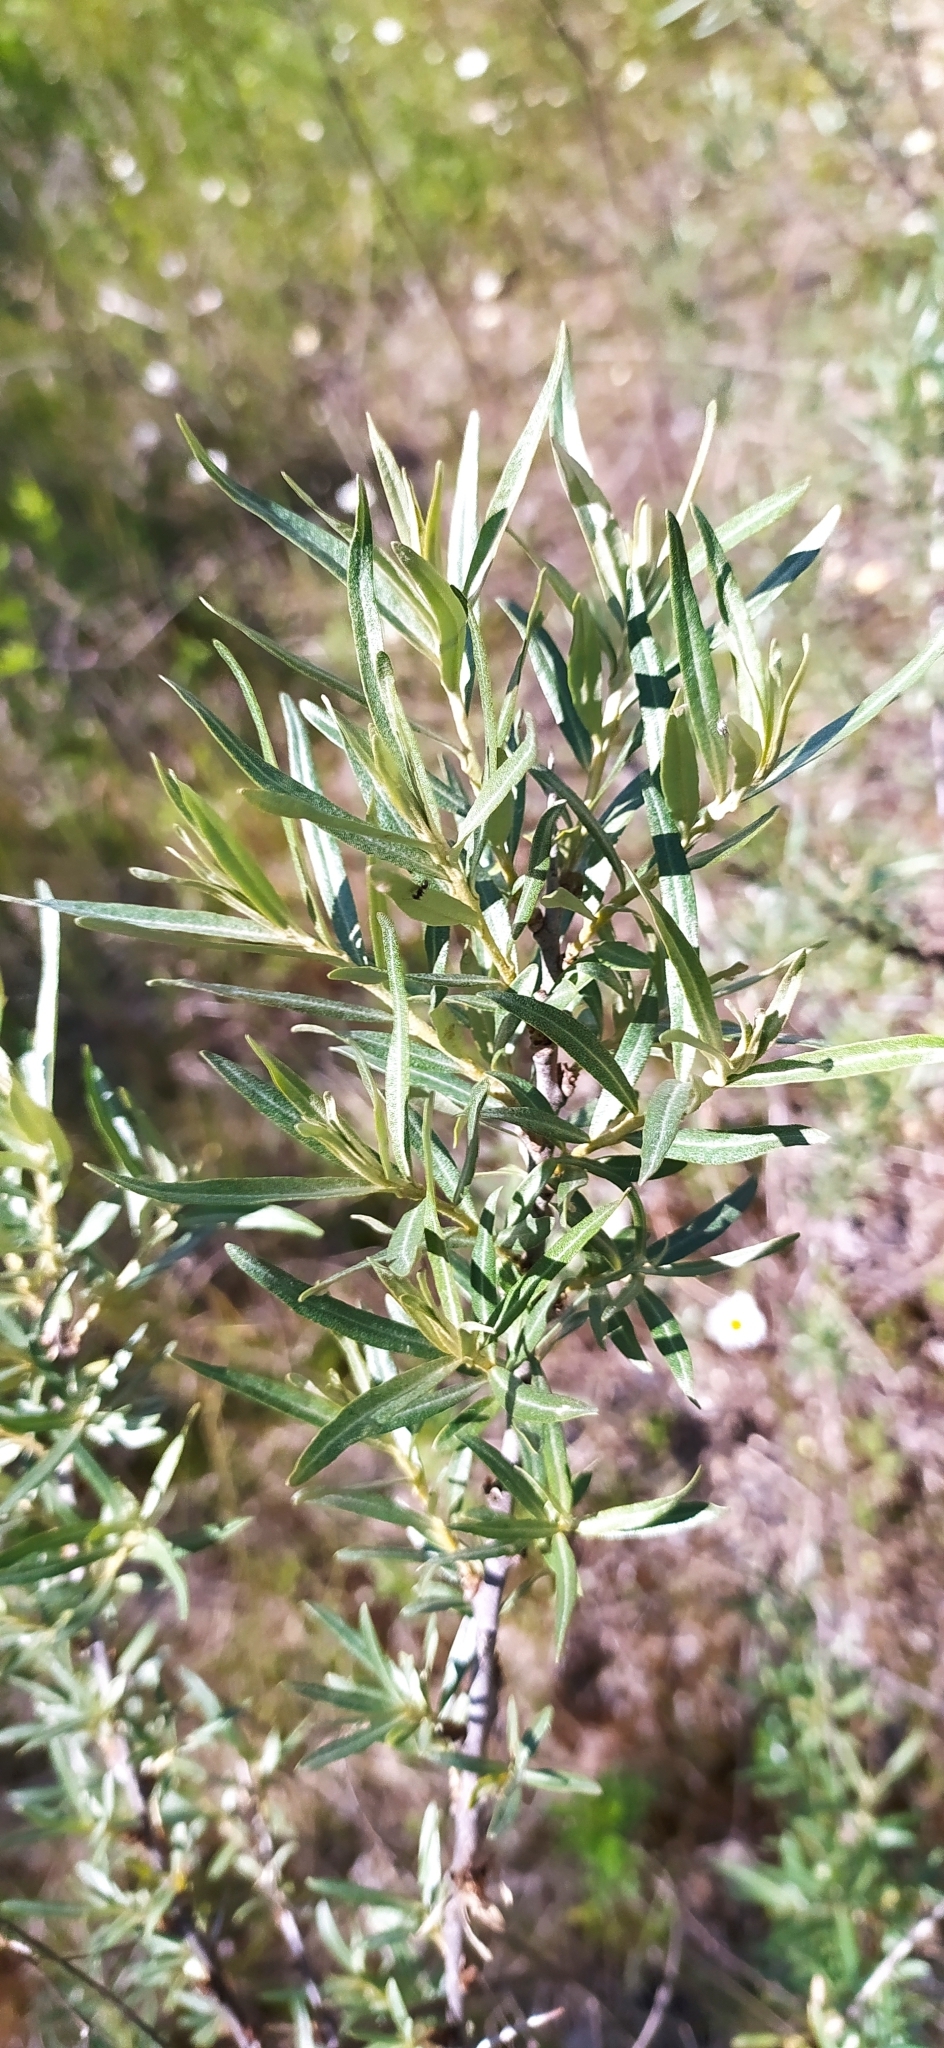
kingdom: Plantae
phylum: Tracheophyta
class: Magnoliopsida
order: Rosales
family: Elaeagnaceae
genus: Hippophae
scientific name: Hippophae rhamnoides
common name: Sea-buckthorn
